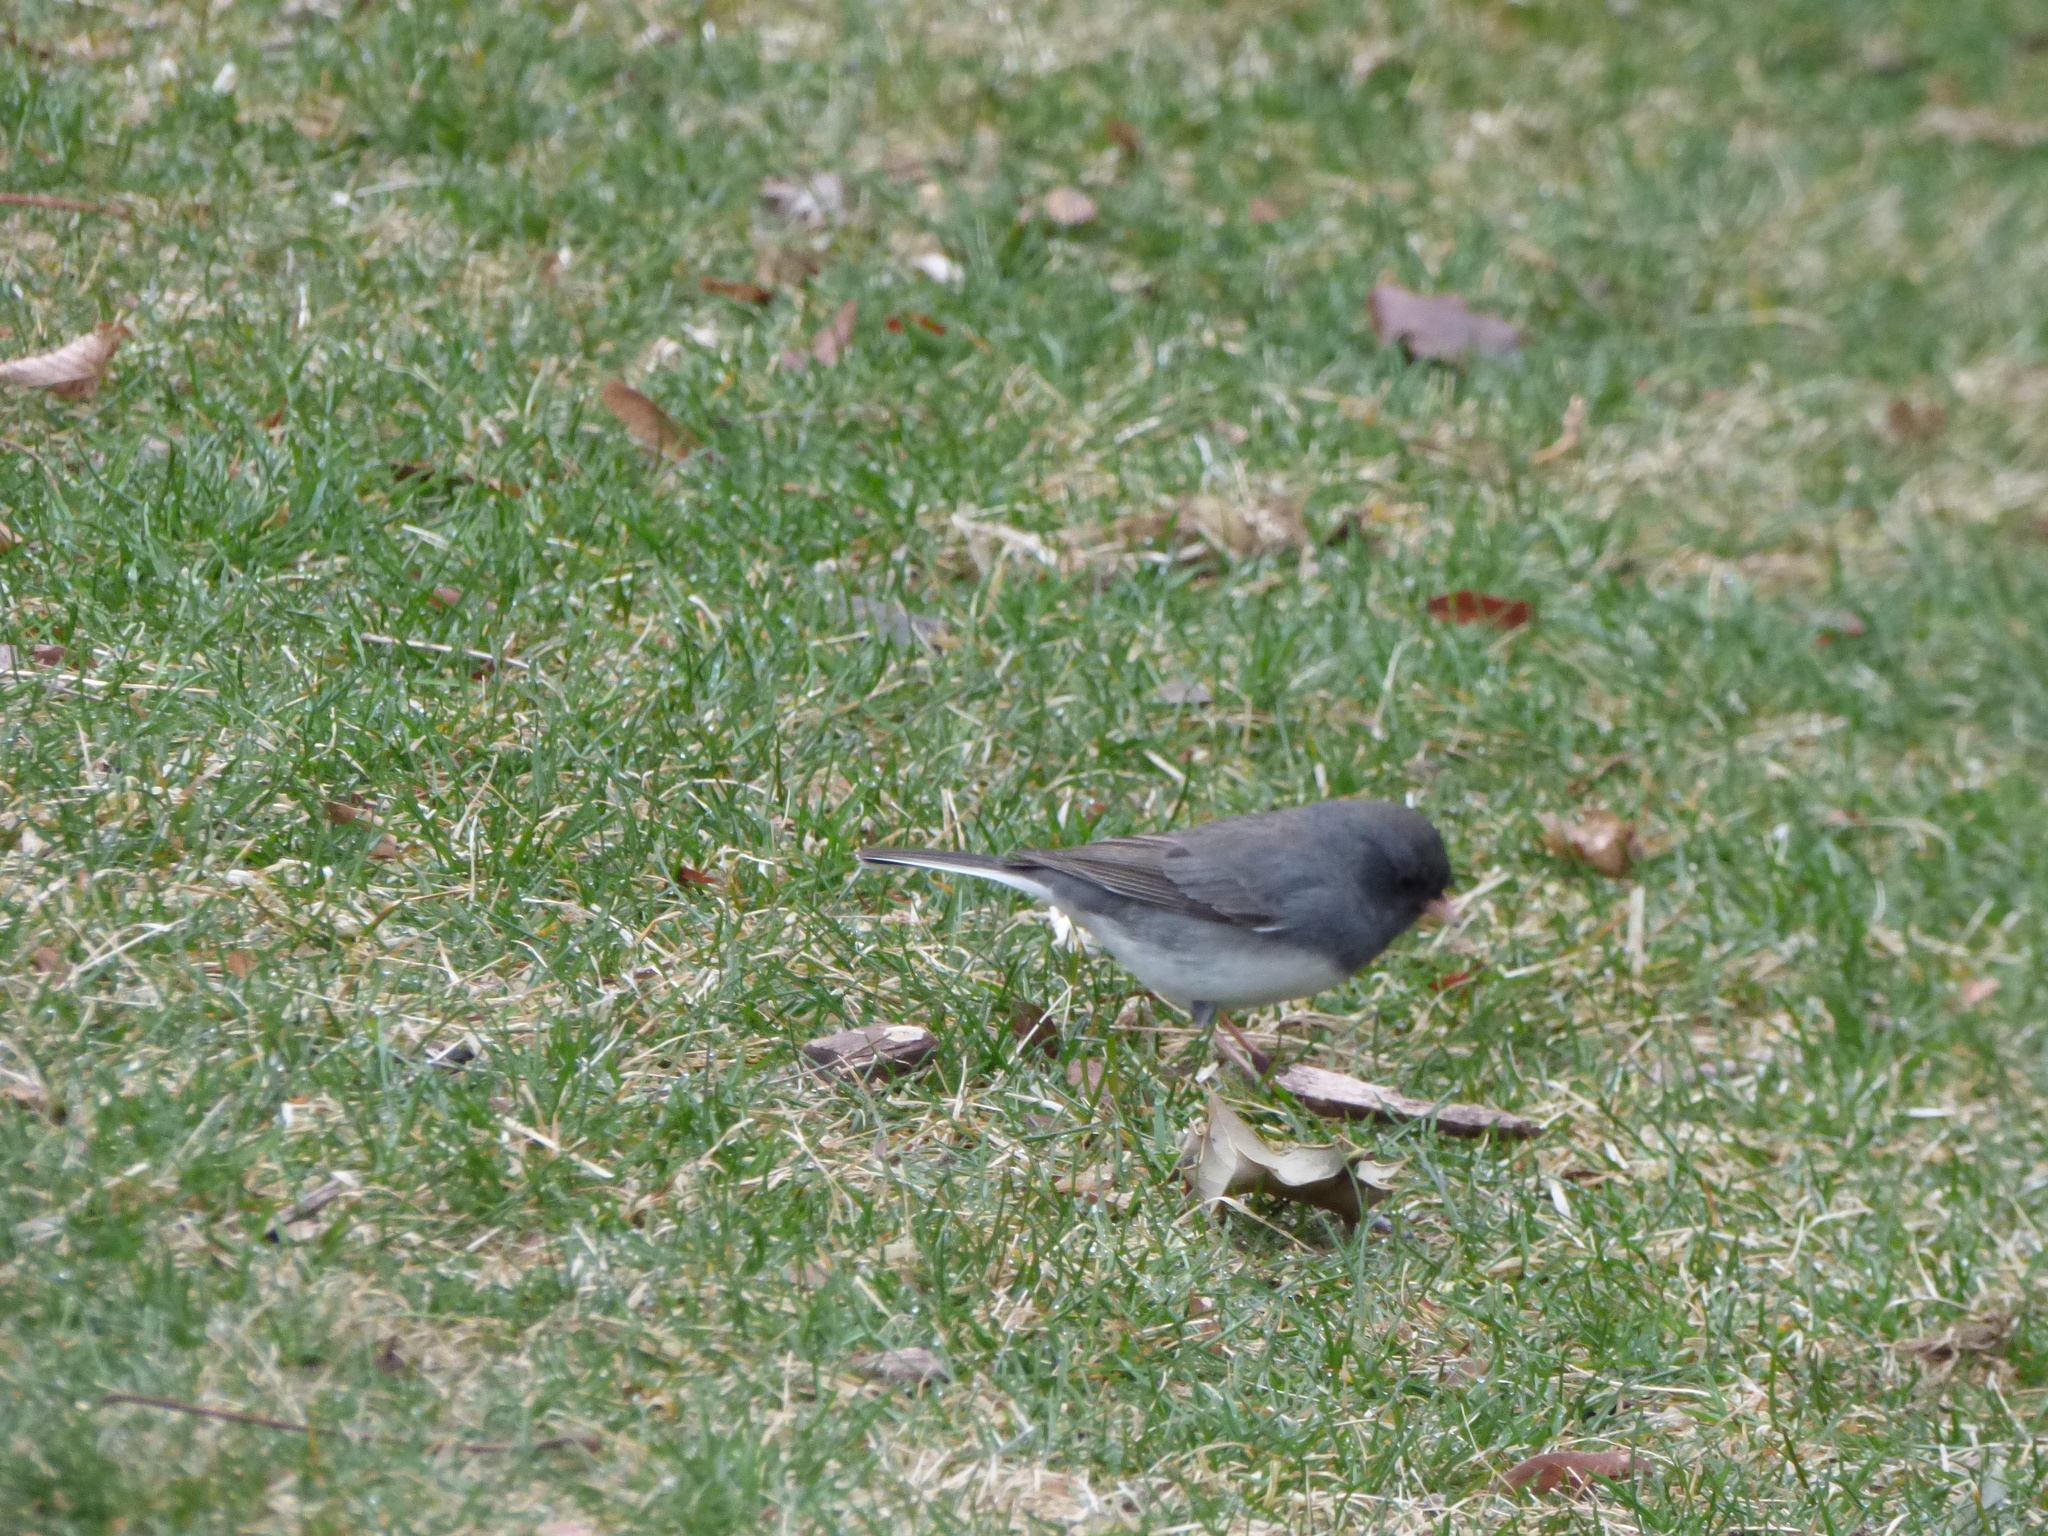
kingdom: Animalia
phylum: Chordata
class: Aves
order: Passeriformes
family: Passerellidae
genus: Junco
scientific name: Junco hyemalis
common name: Dark-eyed junco
